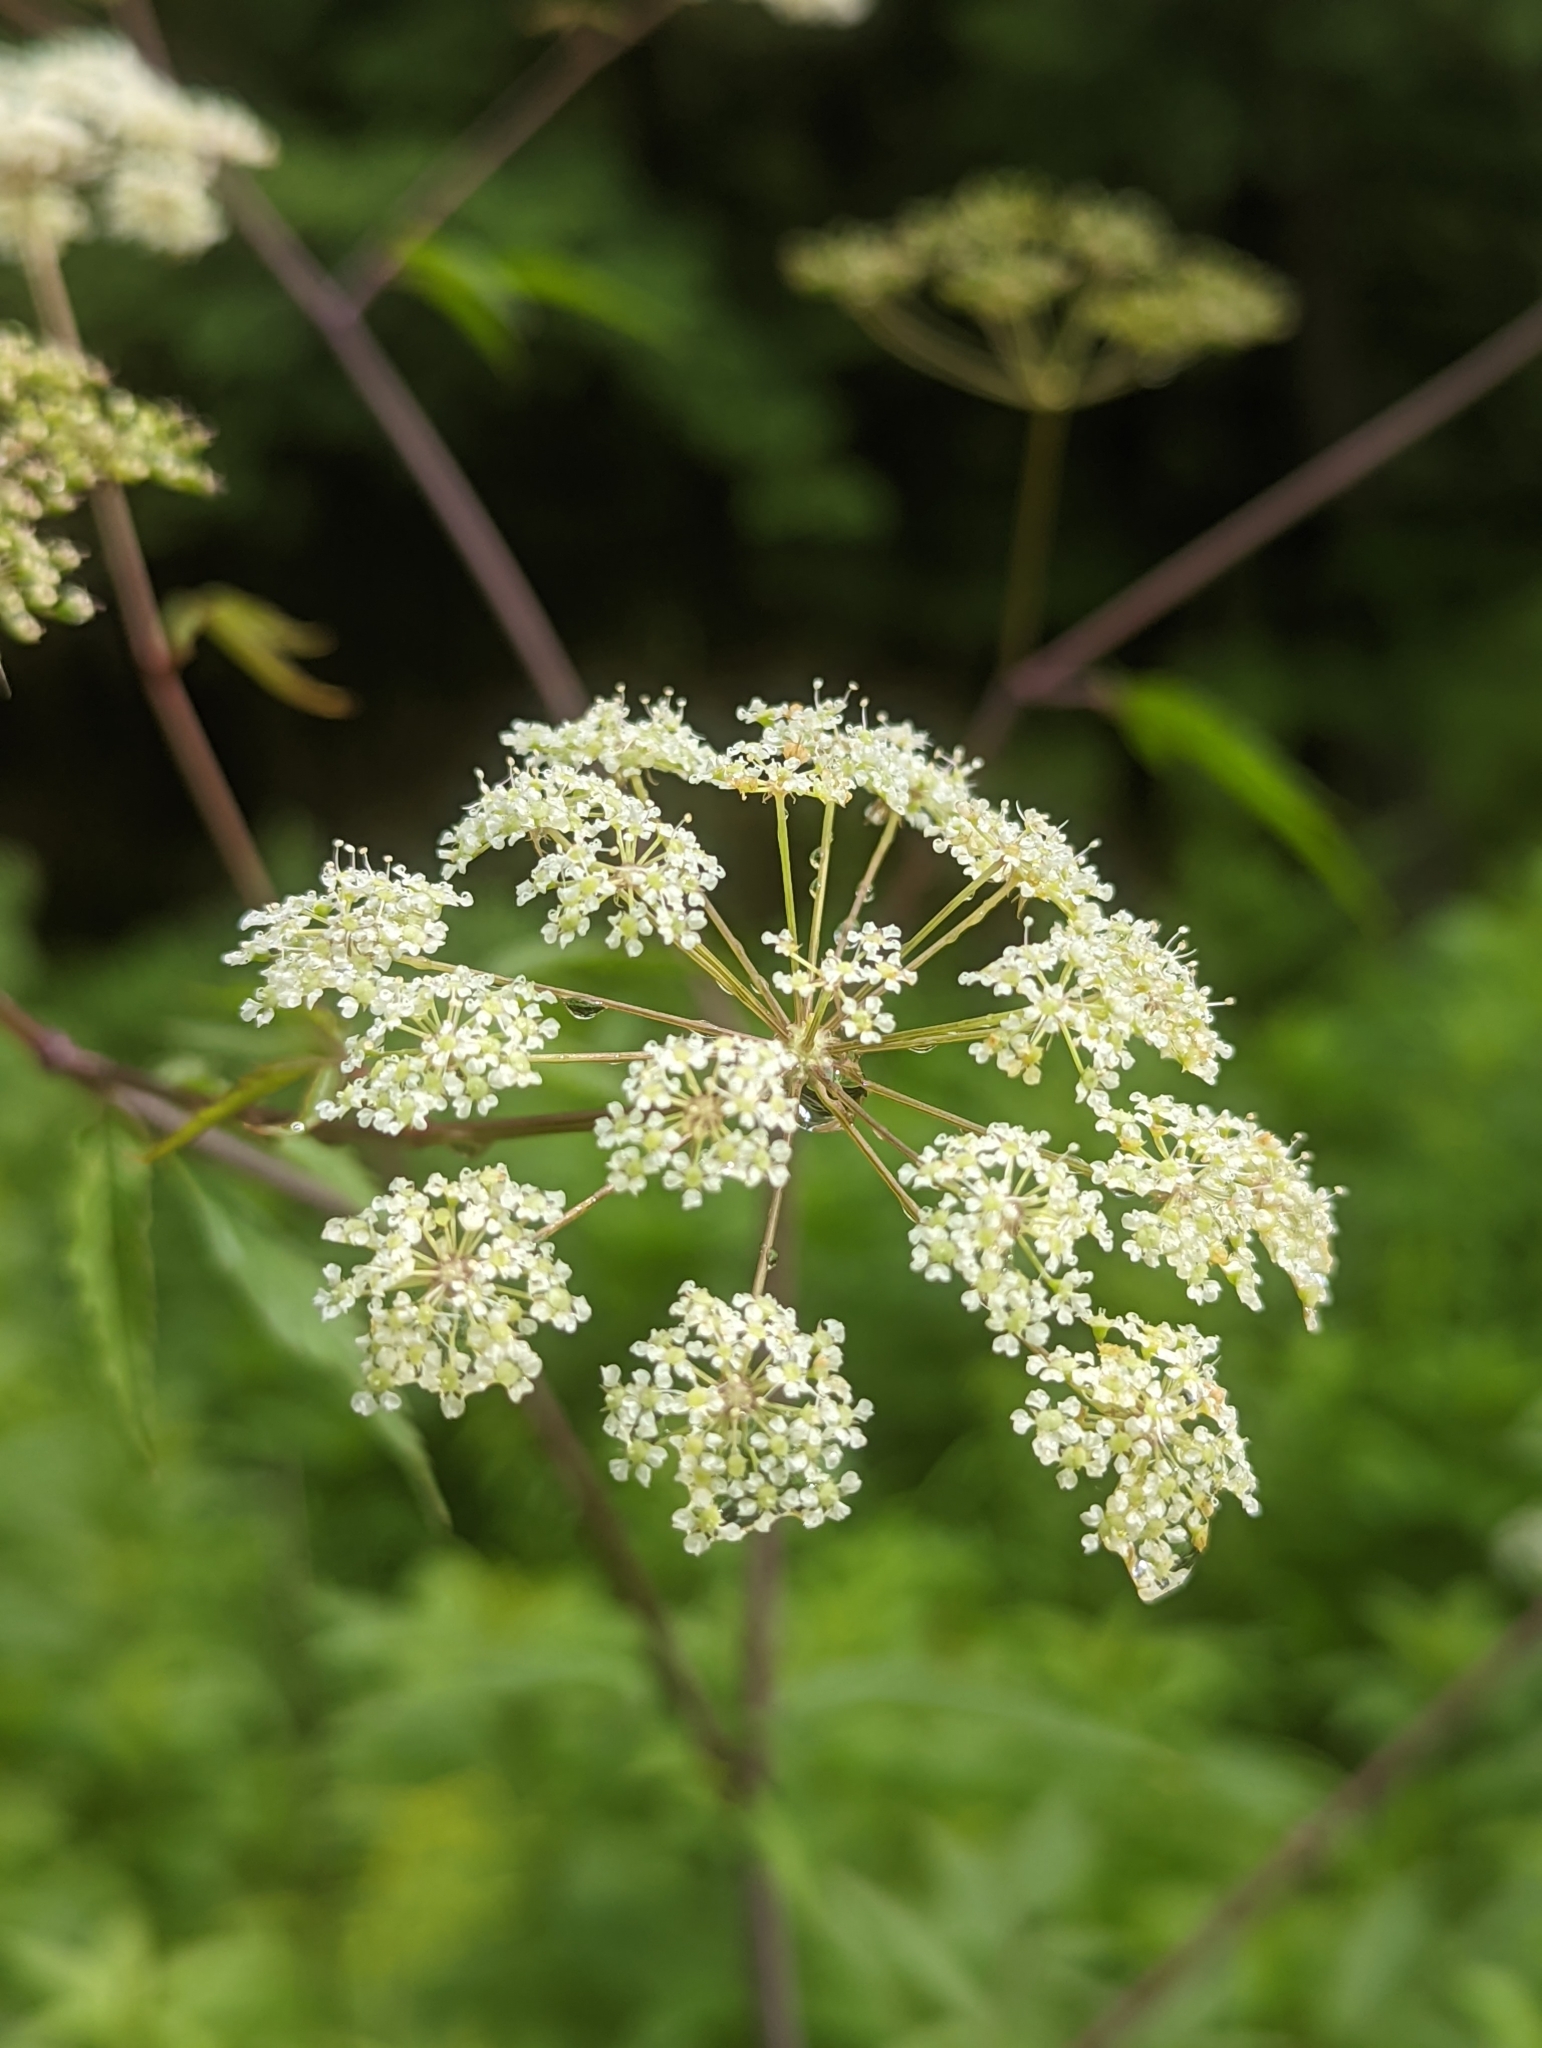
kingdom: Plantae
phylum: Tracheophyta
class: Magnoliopsida
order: Apiales
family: Apiaceae
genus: Cicuta
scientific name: Cicuta maculata
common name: Spotted cowbane
